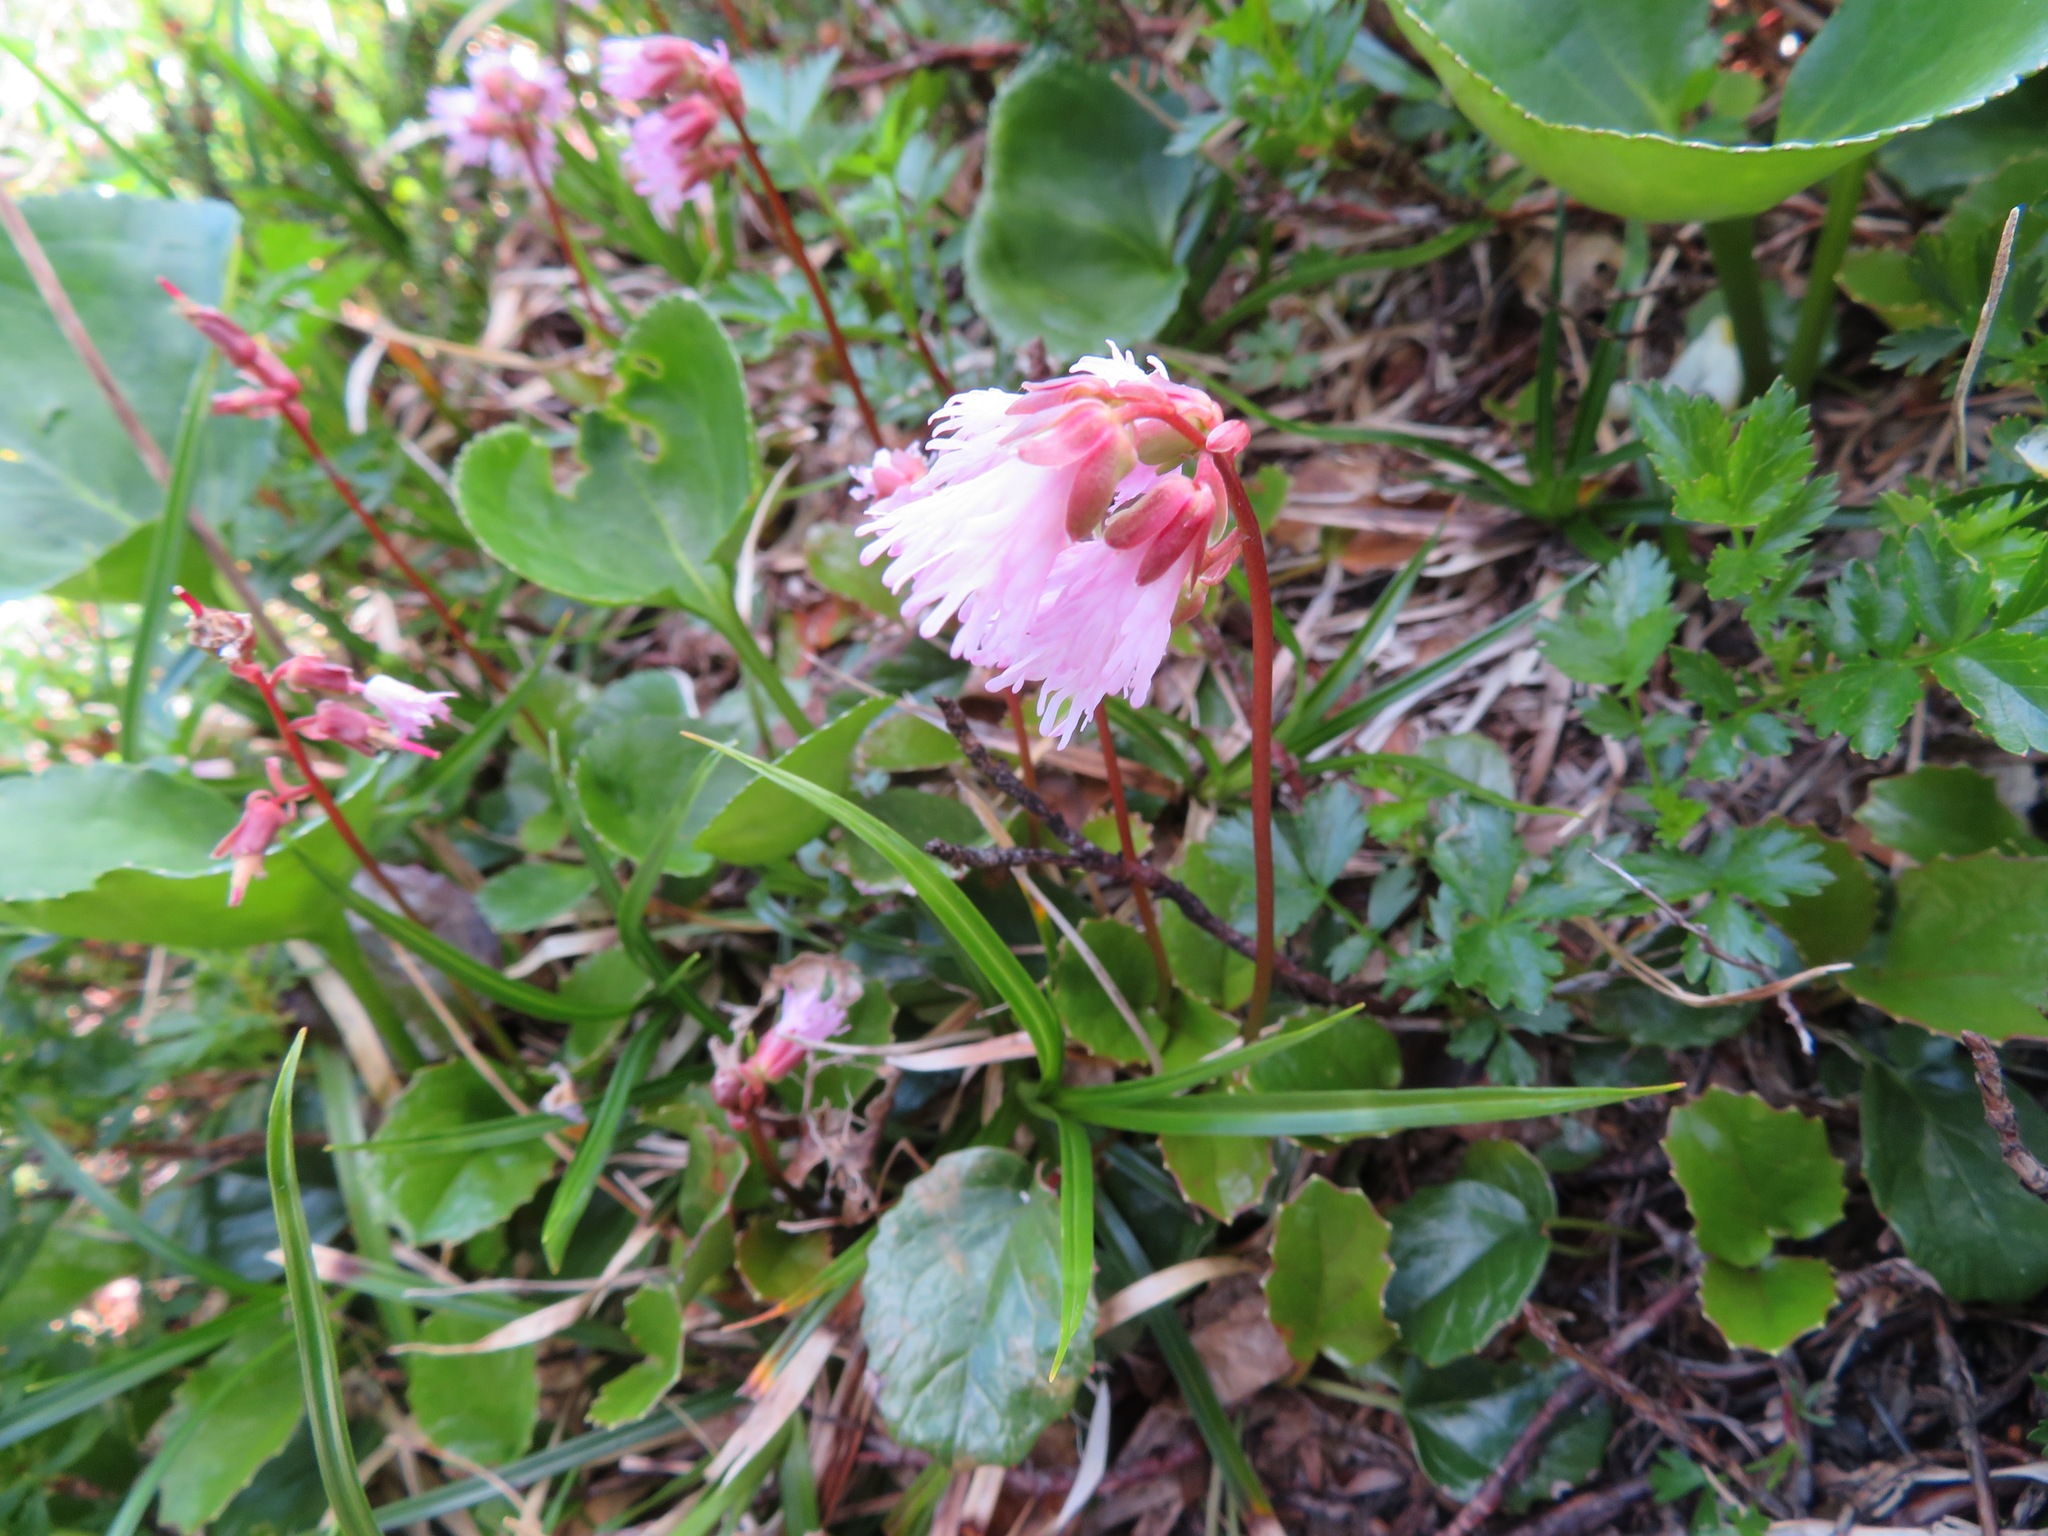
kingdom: Plantae
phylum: Tracheophyta
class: Magnoliopsida
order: Ericales
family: Diapensiaceae
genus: Schizocodon
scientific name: Schizocodon soldanelloides
